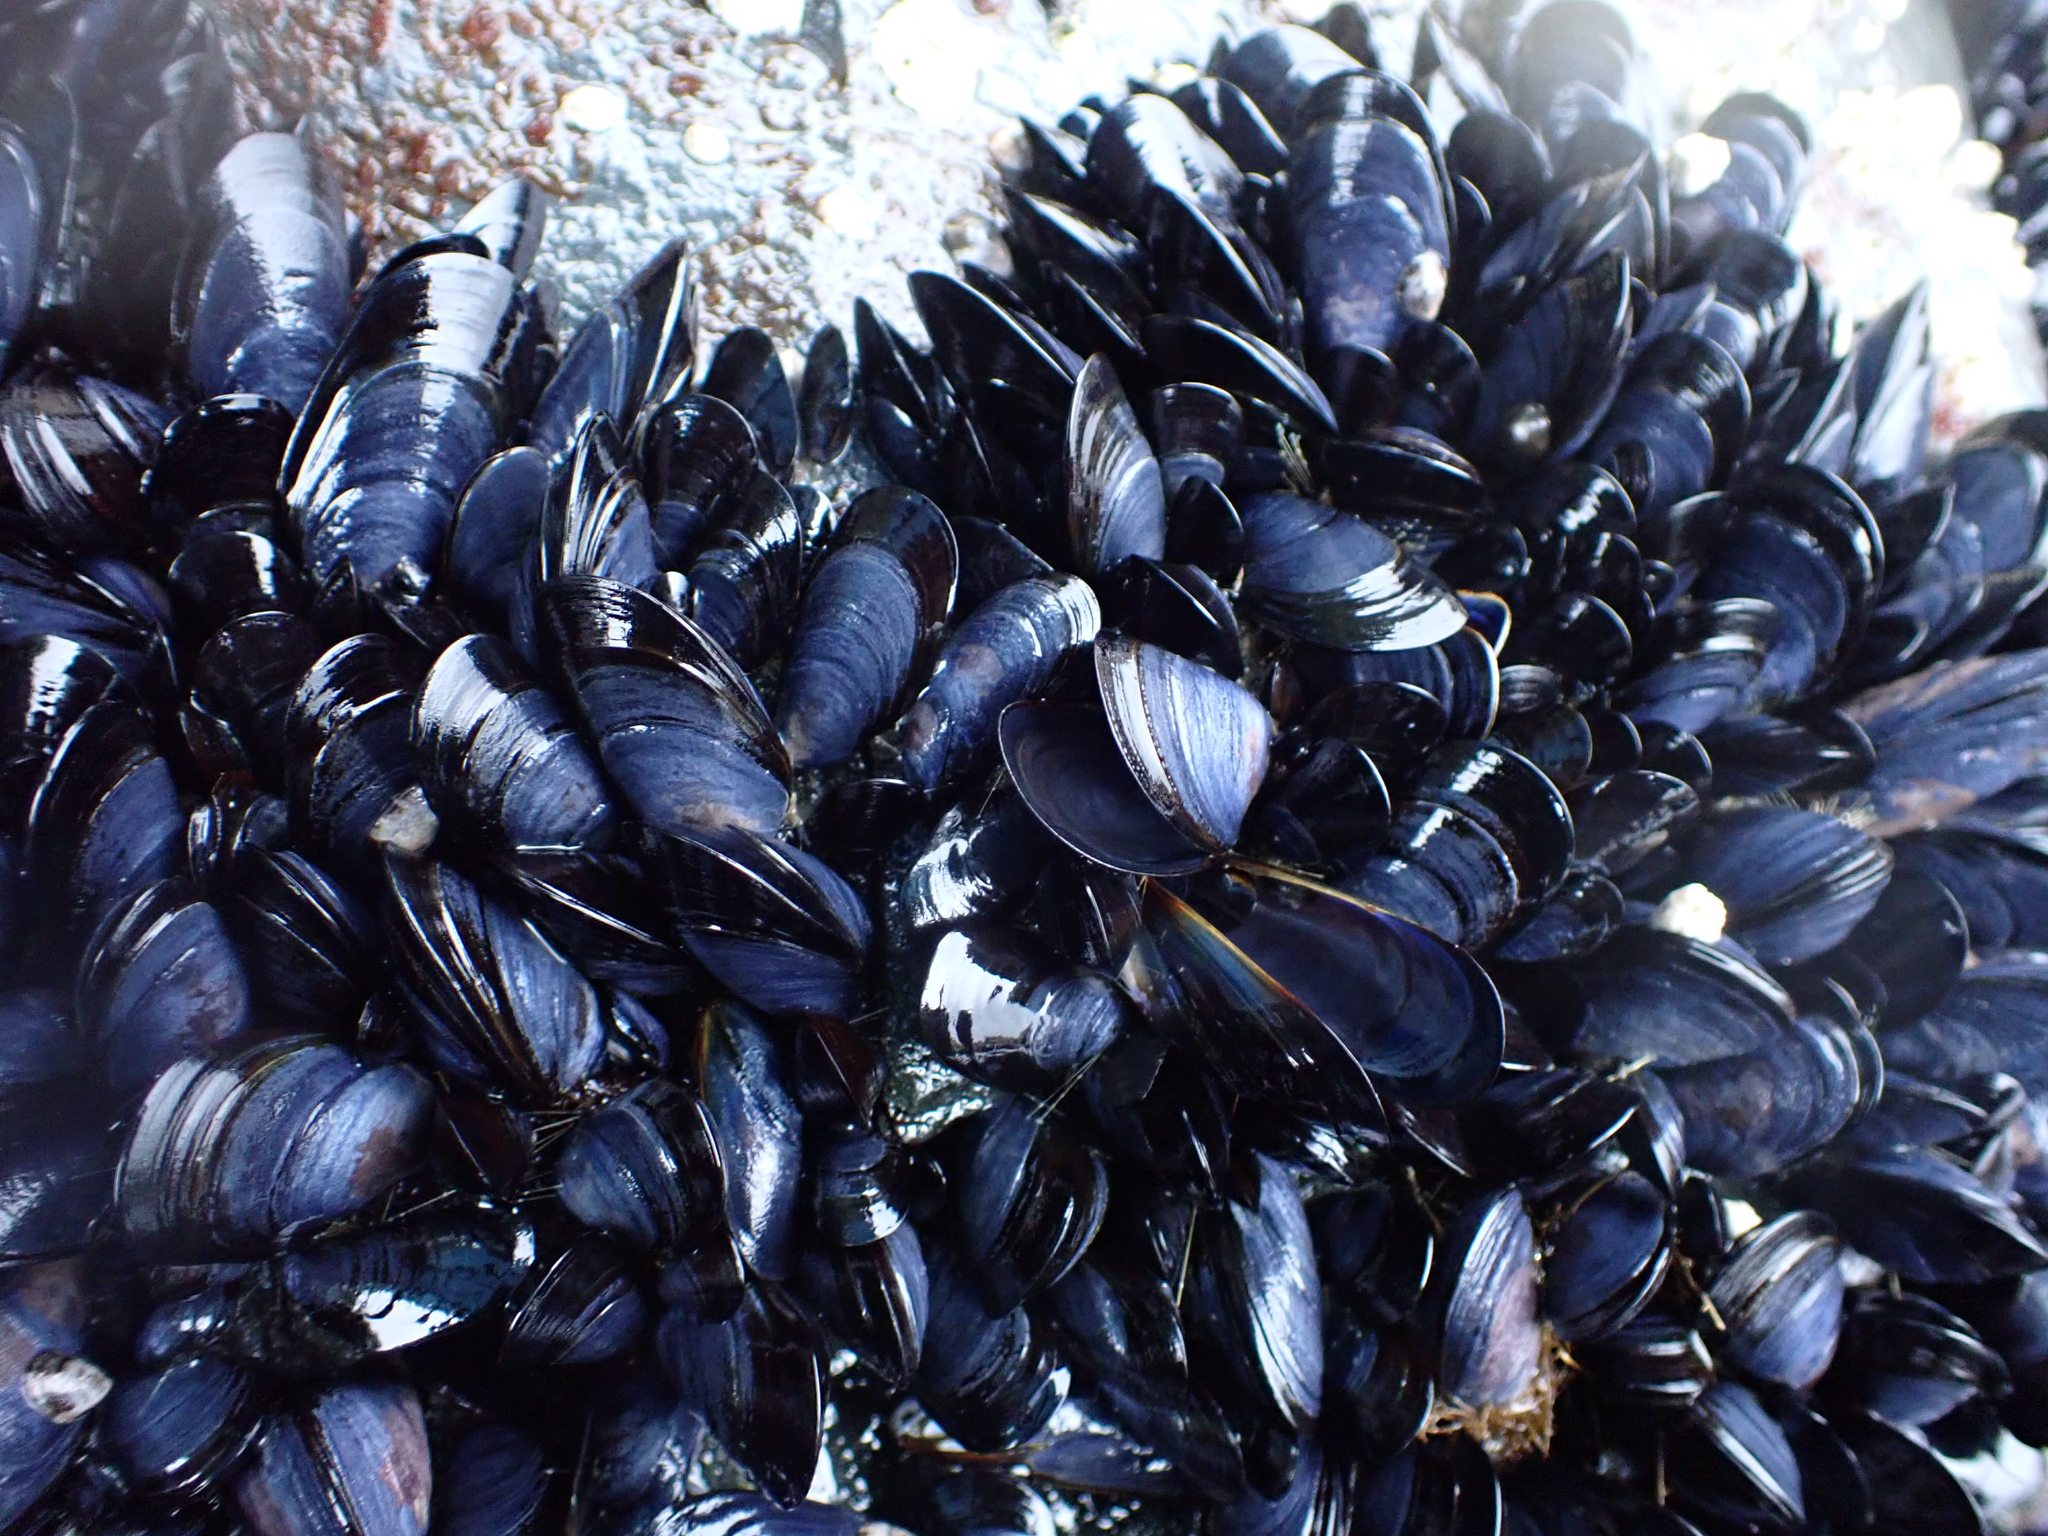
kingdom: Animalia
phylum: Mollusca
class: Bivalvia
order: Mytilida
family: Mytilidae
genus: Mytilus
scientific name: Mytilus trossulus
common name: Northern blue mussel
